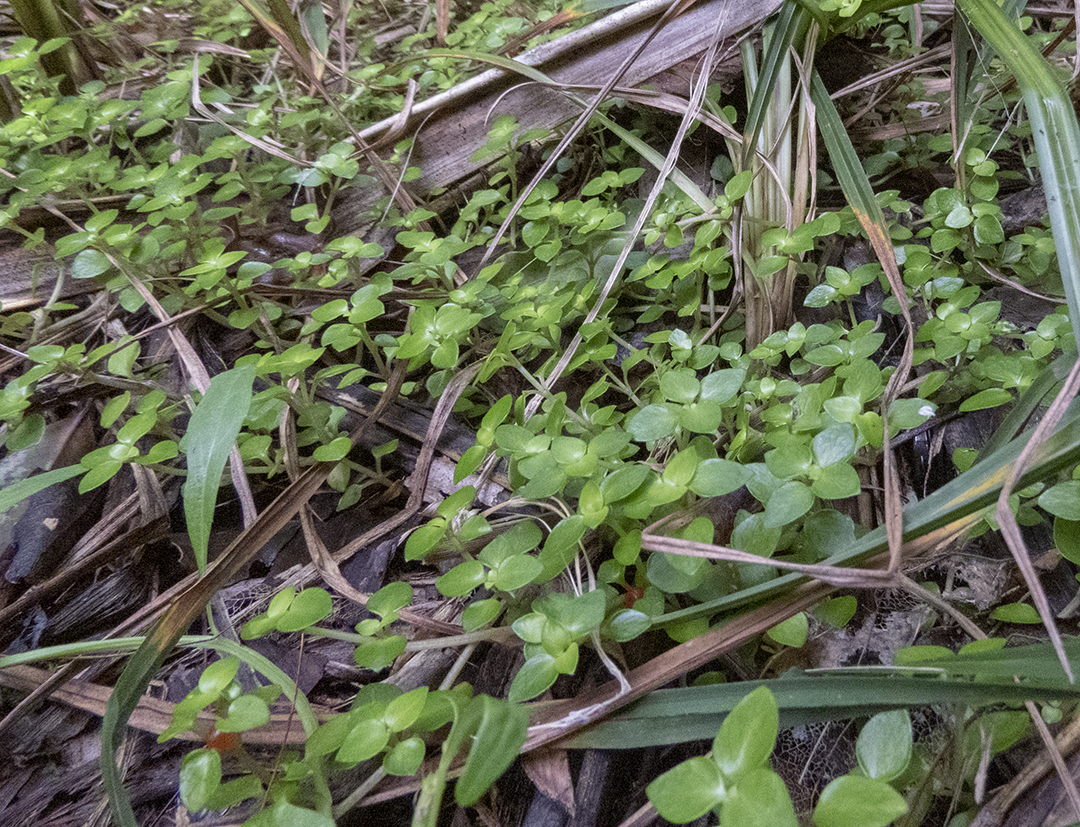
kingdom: Plantae
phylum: Tracheophyta
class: Magnoliopsida
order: Gentianales
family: Rubiaceae
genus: Nertera
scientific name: Nertera granadensis
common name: Beadplant
